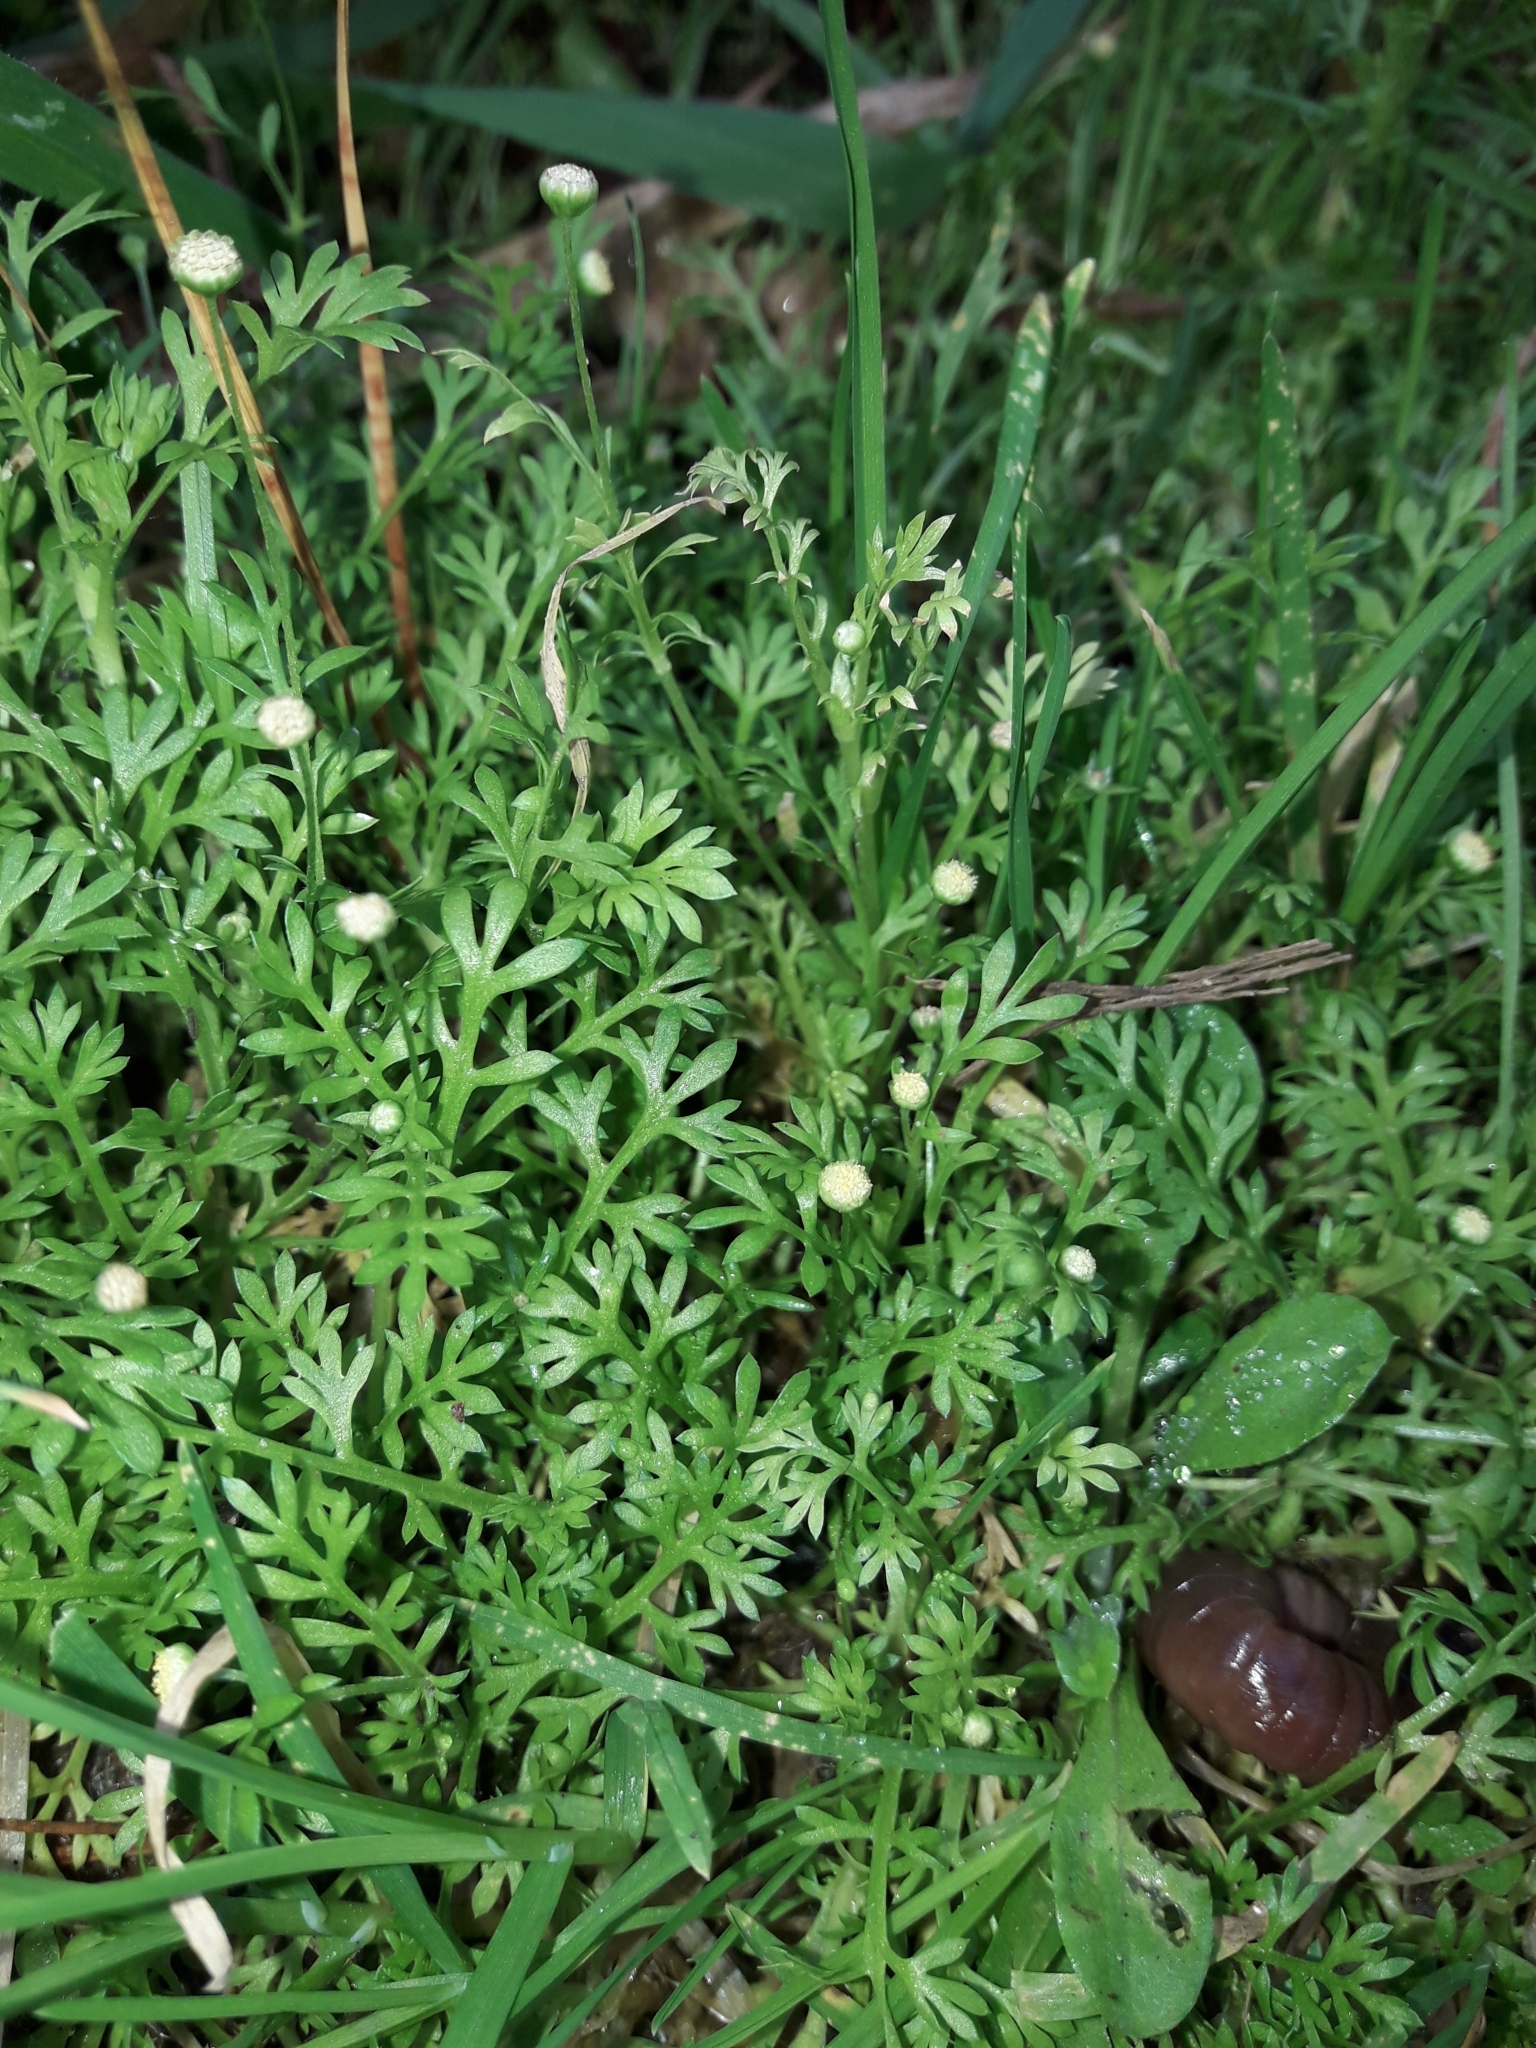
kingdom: Plantae
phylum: Tracheophyta
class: Magnoliopsida
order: Asterales
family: Asteraceae
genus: Cotula
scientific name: Cotula australis
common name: Australian waterbuttons
